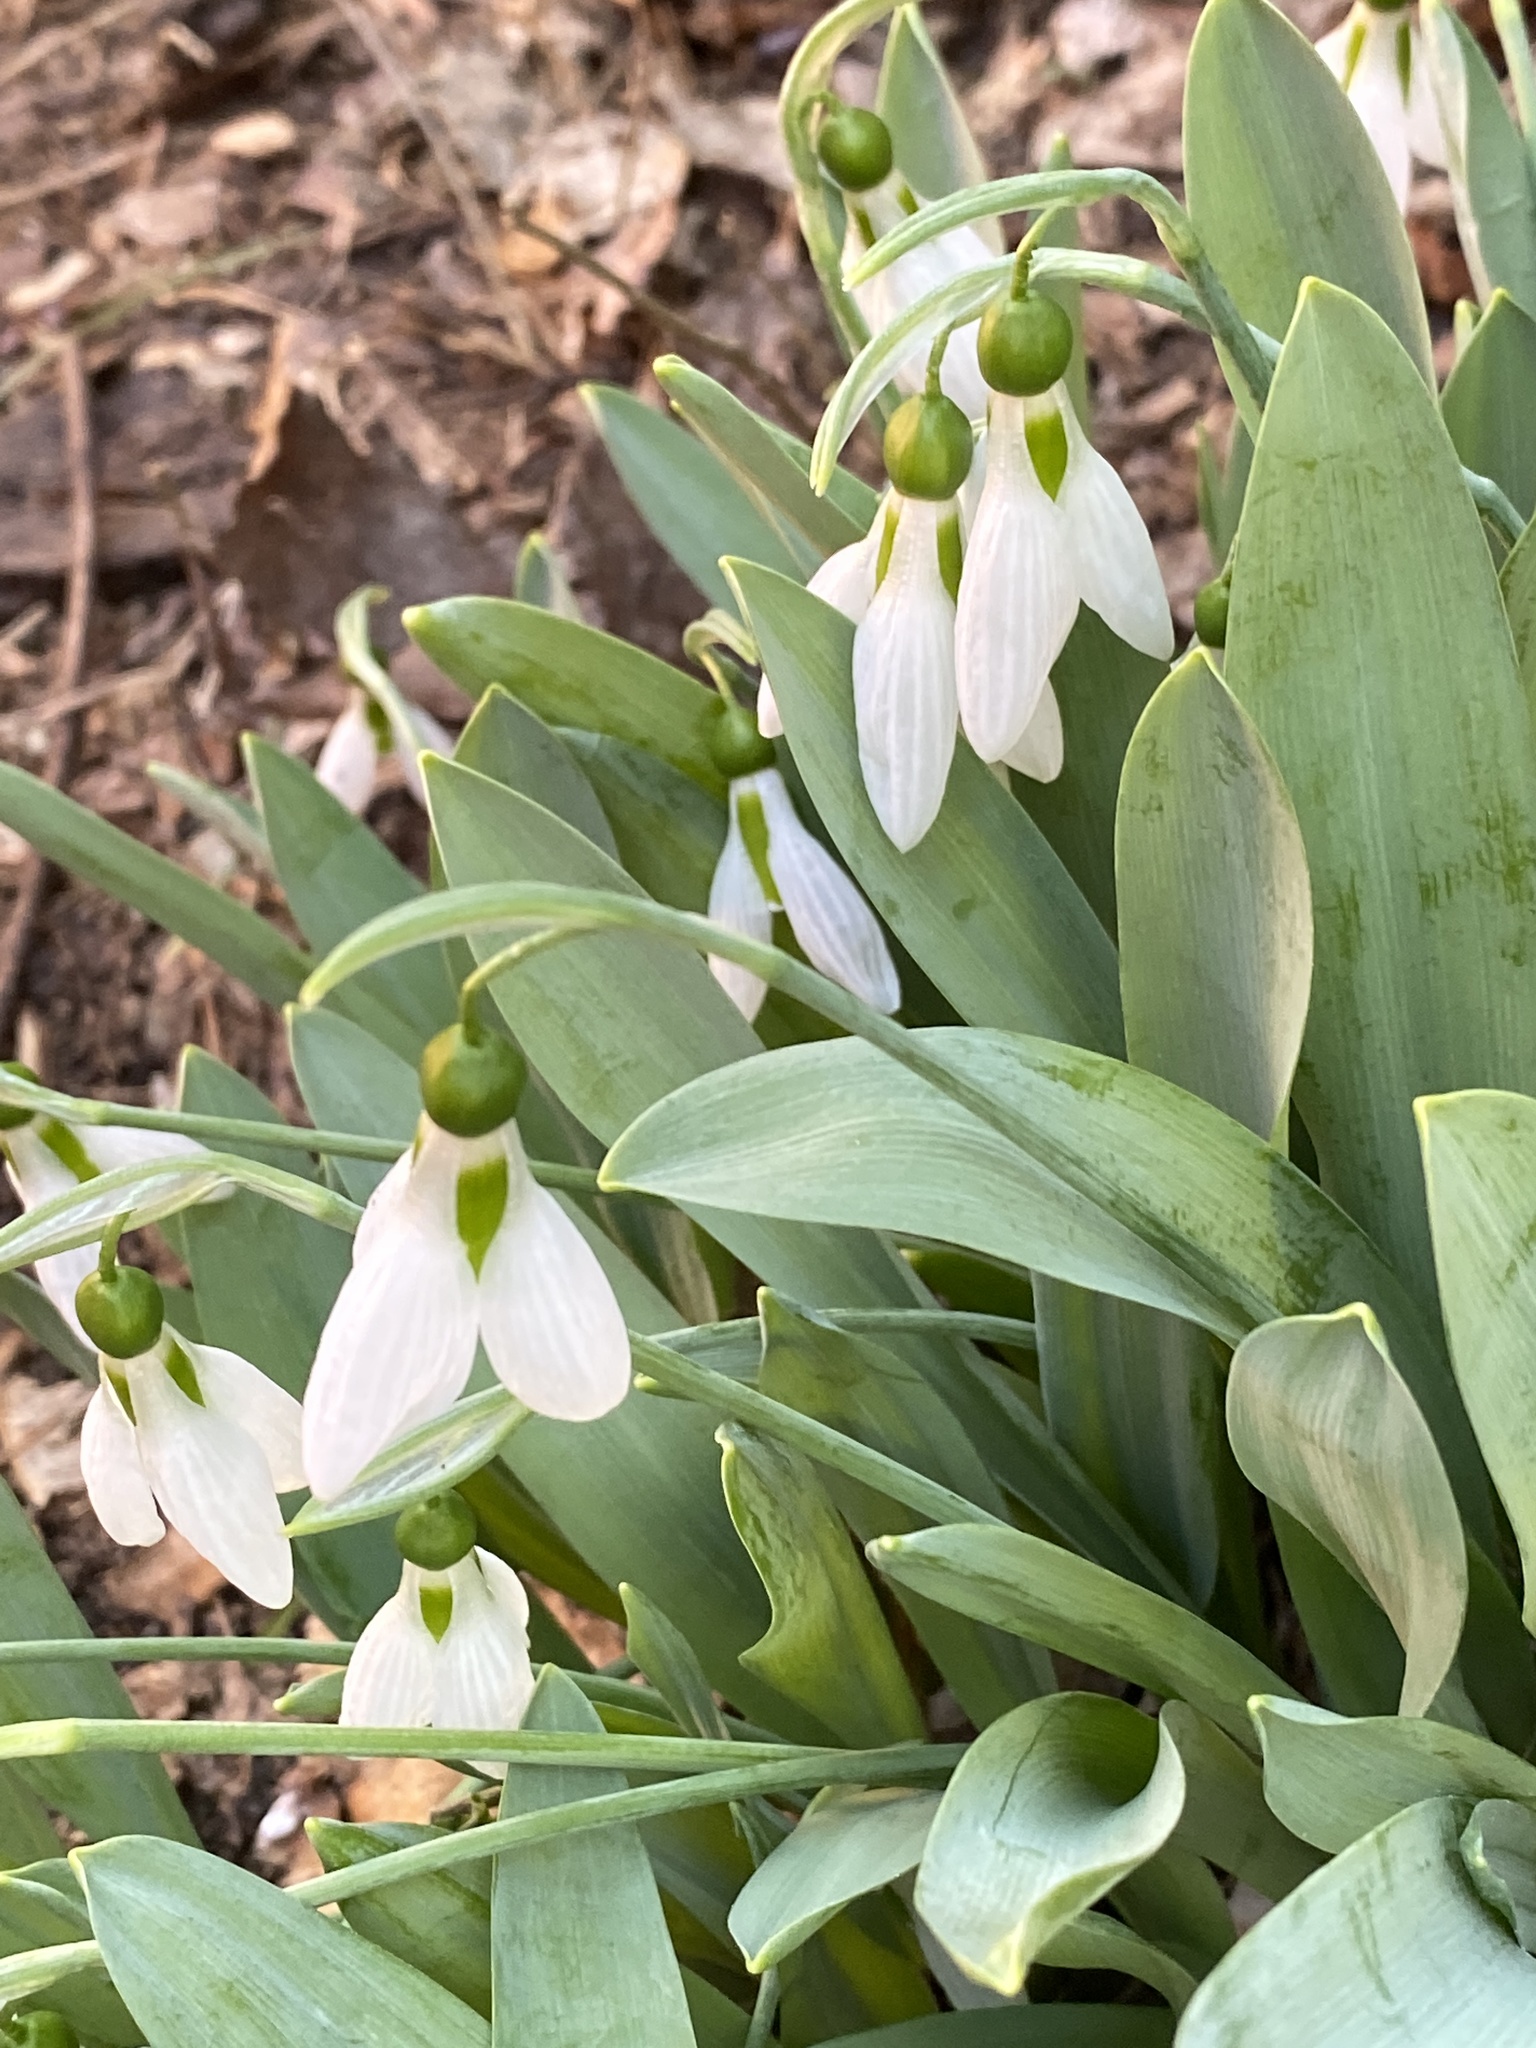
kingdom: Plantae
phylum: Tracheophyta
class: Liliopsida
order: Asparagales
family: Amaryllidaceae
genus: Galanthus
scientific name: Galanthus elwesii
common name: Greater snowdrop
